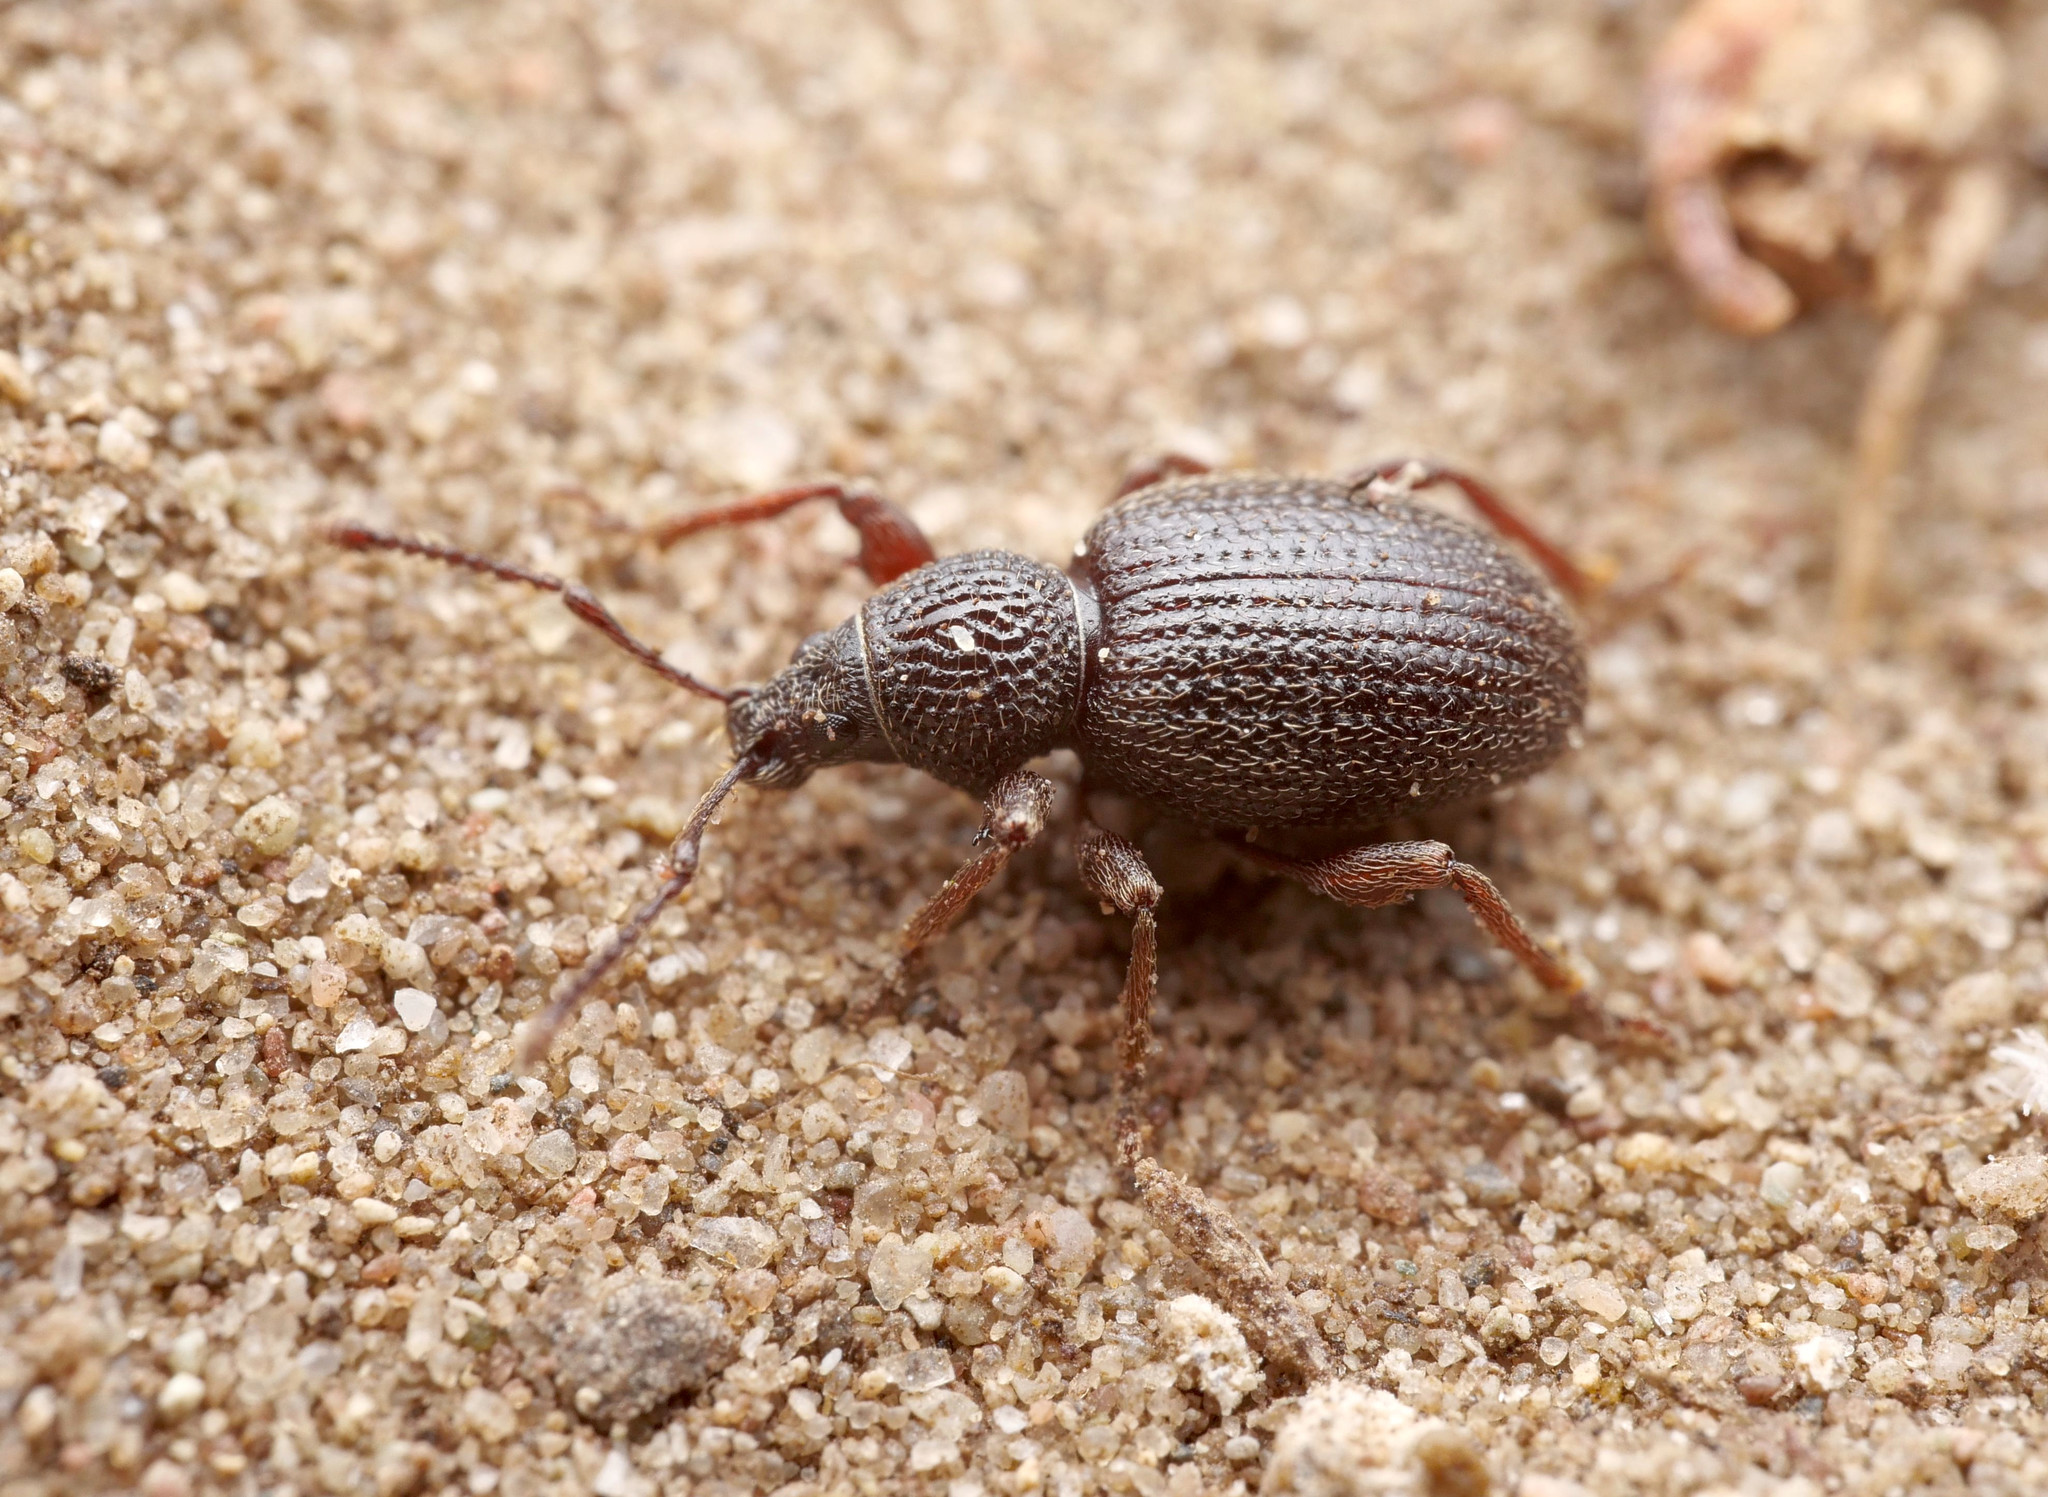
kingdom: Animalia
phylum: Arthropoda
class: Insecta
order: Coleoptera
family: Curculionidae
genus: Otiorhynchus
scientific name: Otiorhynchus ovatus
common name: Strawberry root weevil
